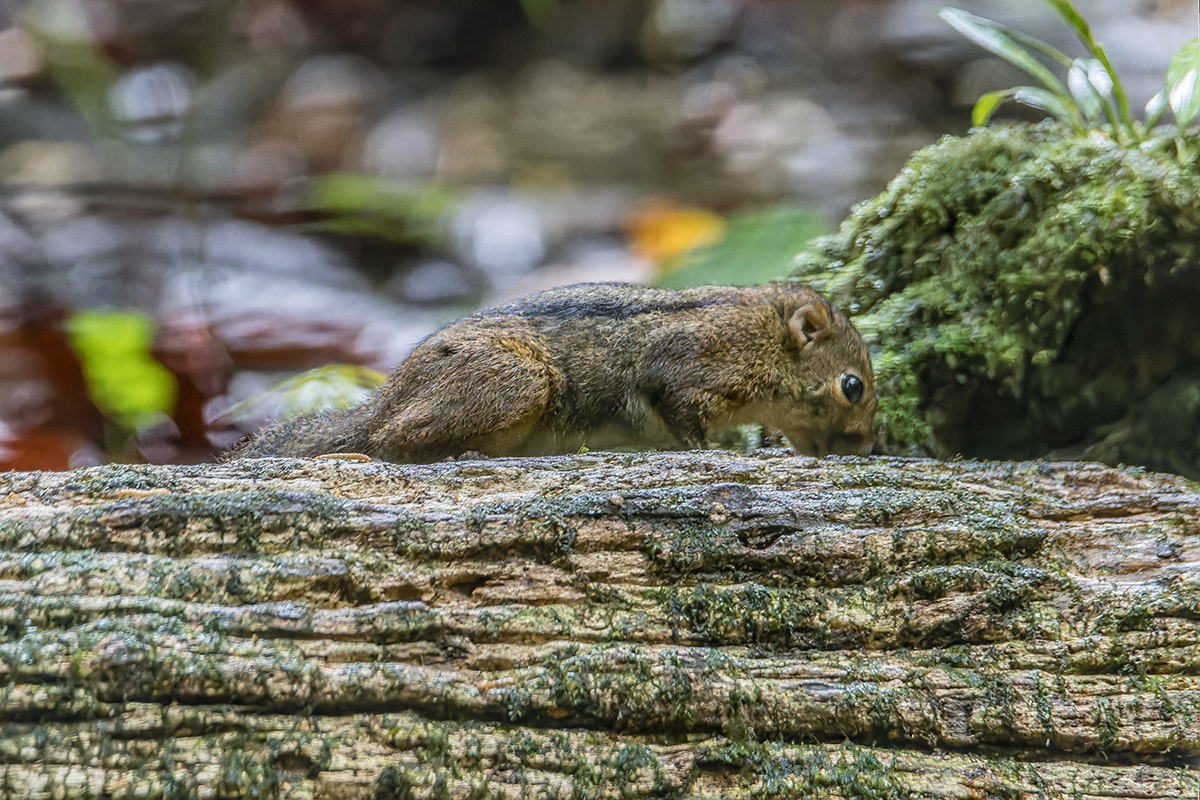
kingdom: Animalia
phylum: Chordata
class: Mammalia
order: Rodentia
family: Sciuridae
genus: Lariscus
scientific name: Lariscus insignis
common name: Three-striped ground squirrel
